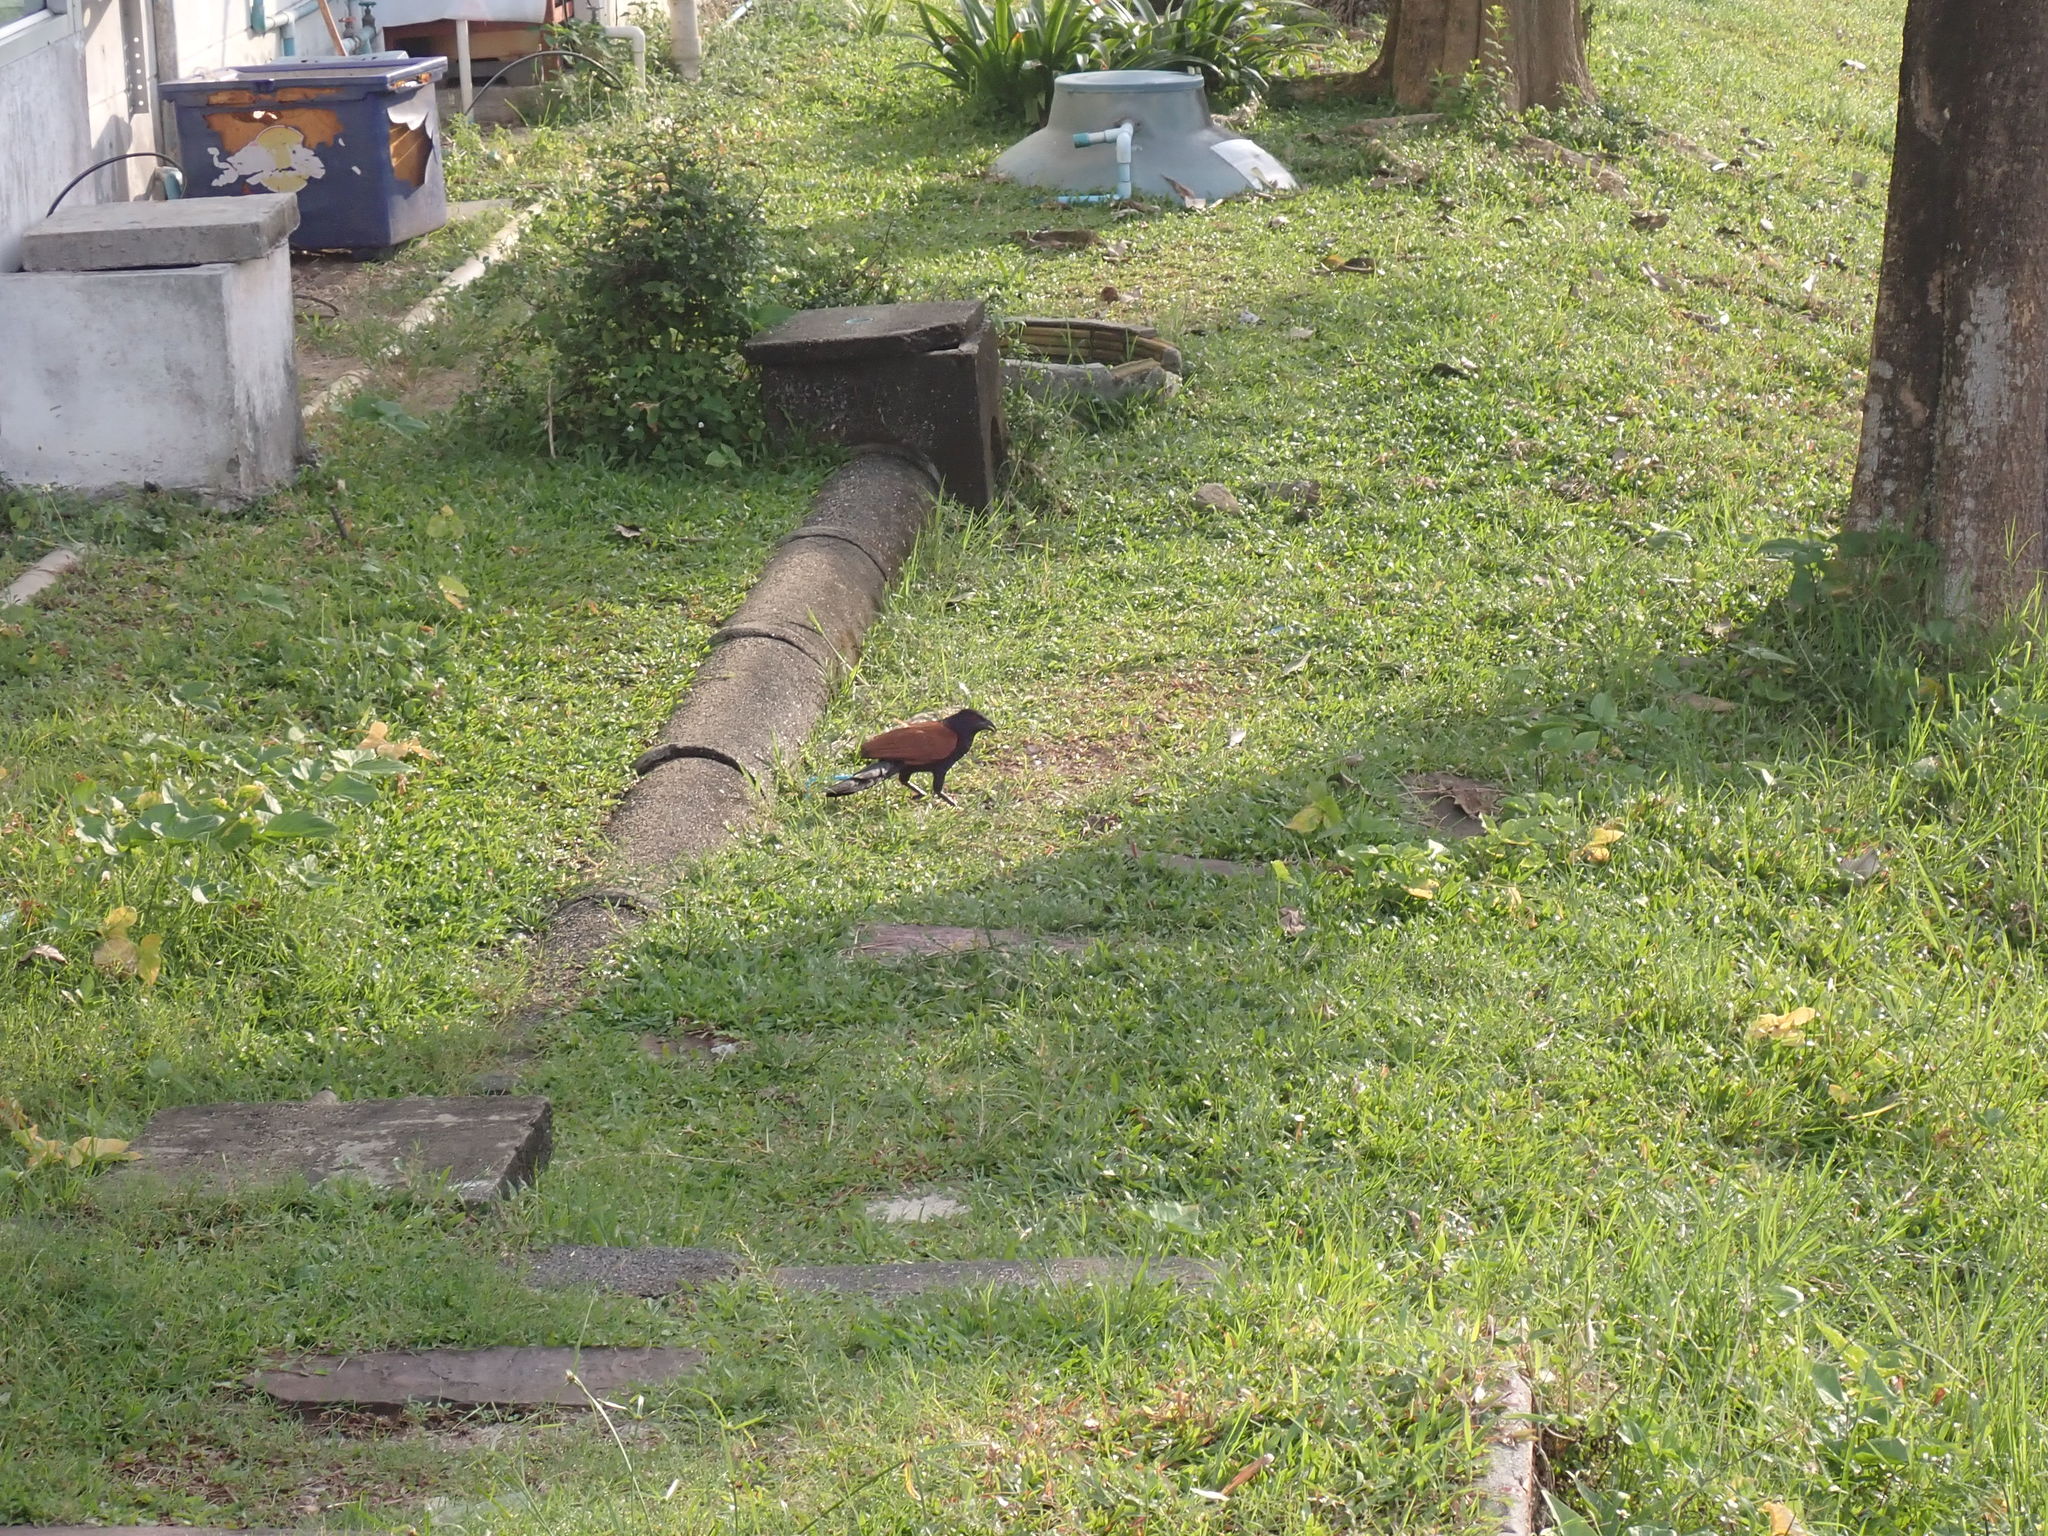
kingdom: Animalia
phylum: Chordata
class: Aves
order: Cuculiformes
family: Cuculidae
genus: Centropus
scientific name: Centropus sinensis
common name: Greater coucal
